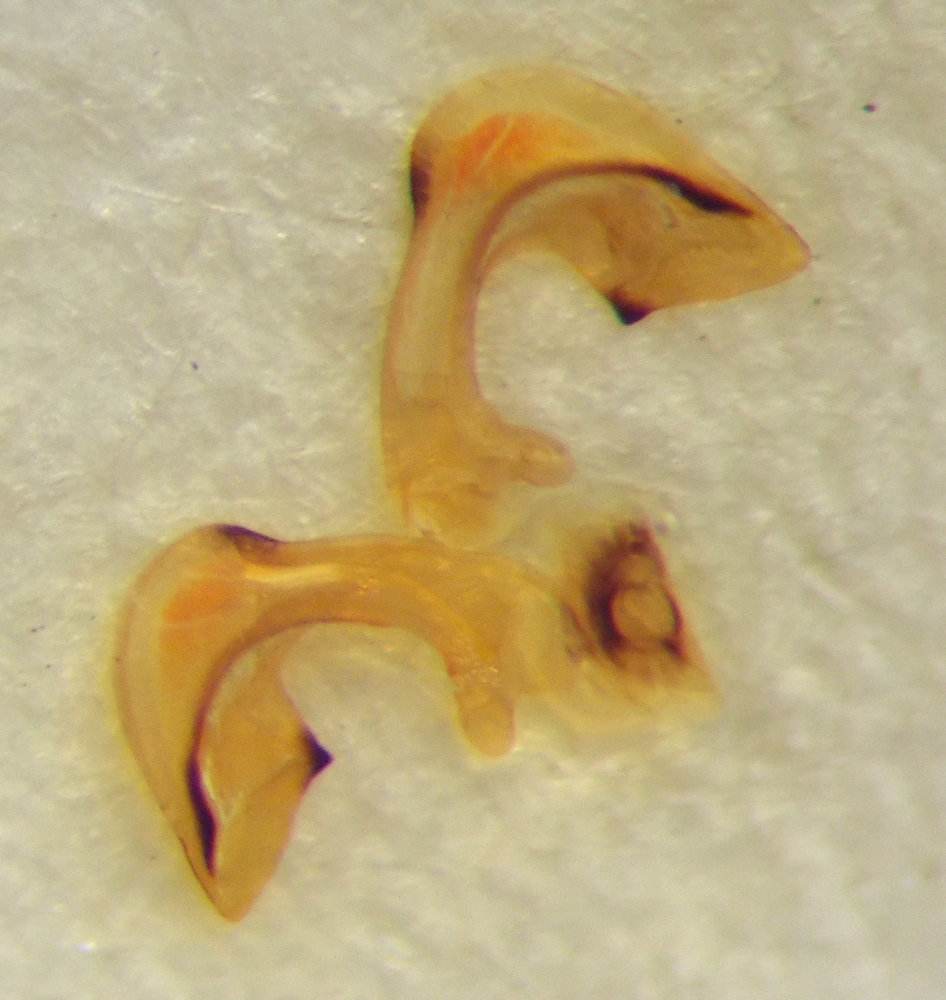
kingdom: Animalia
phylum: Arthropoda
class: Insecta
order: Hemiptera
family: Pentatomidae
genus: Carpocoris
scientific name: Carpocoris mediterraneus
